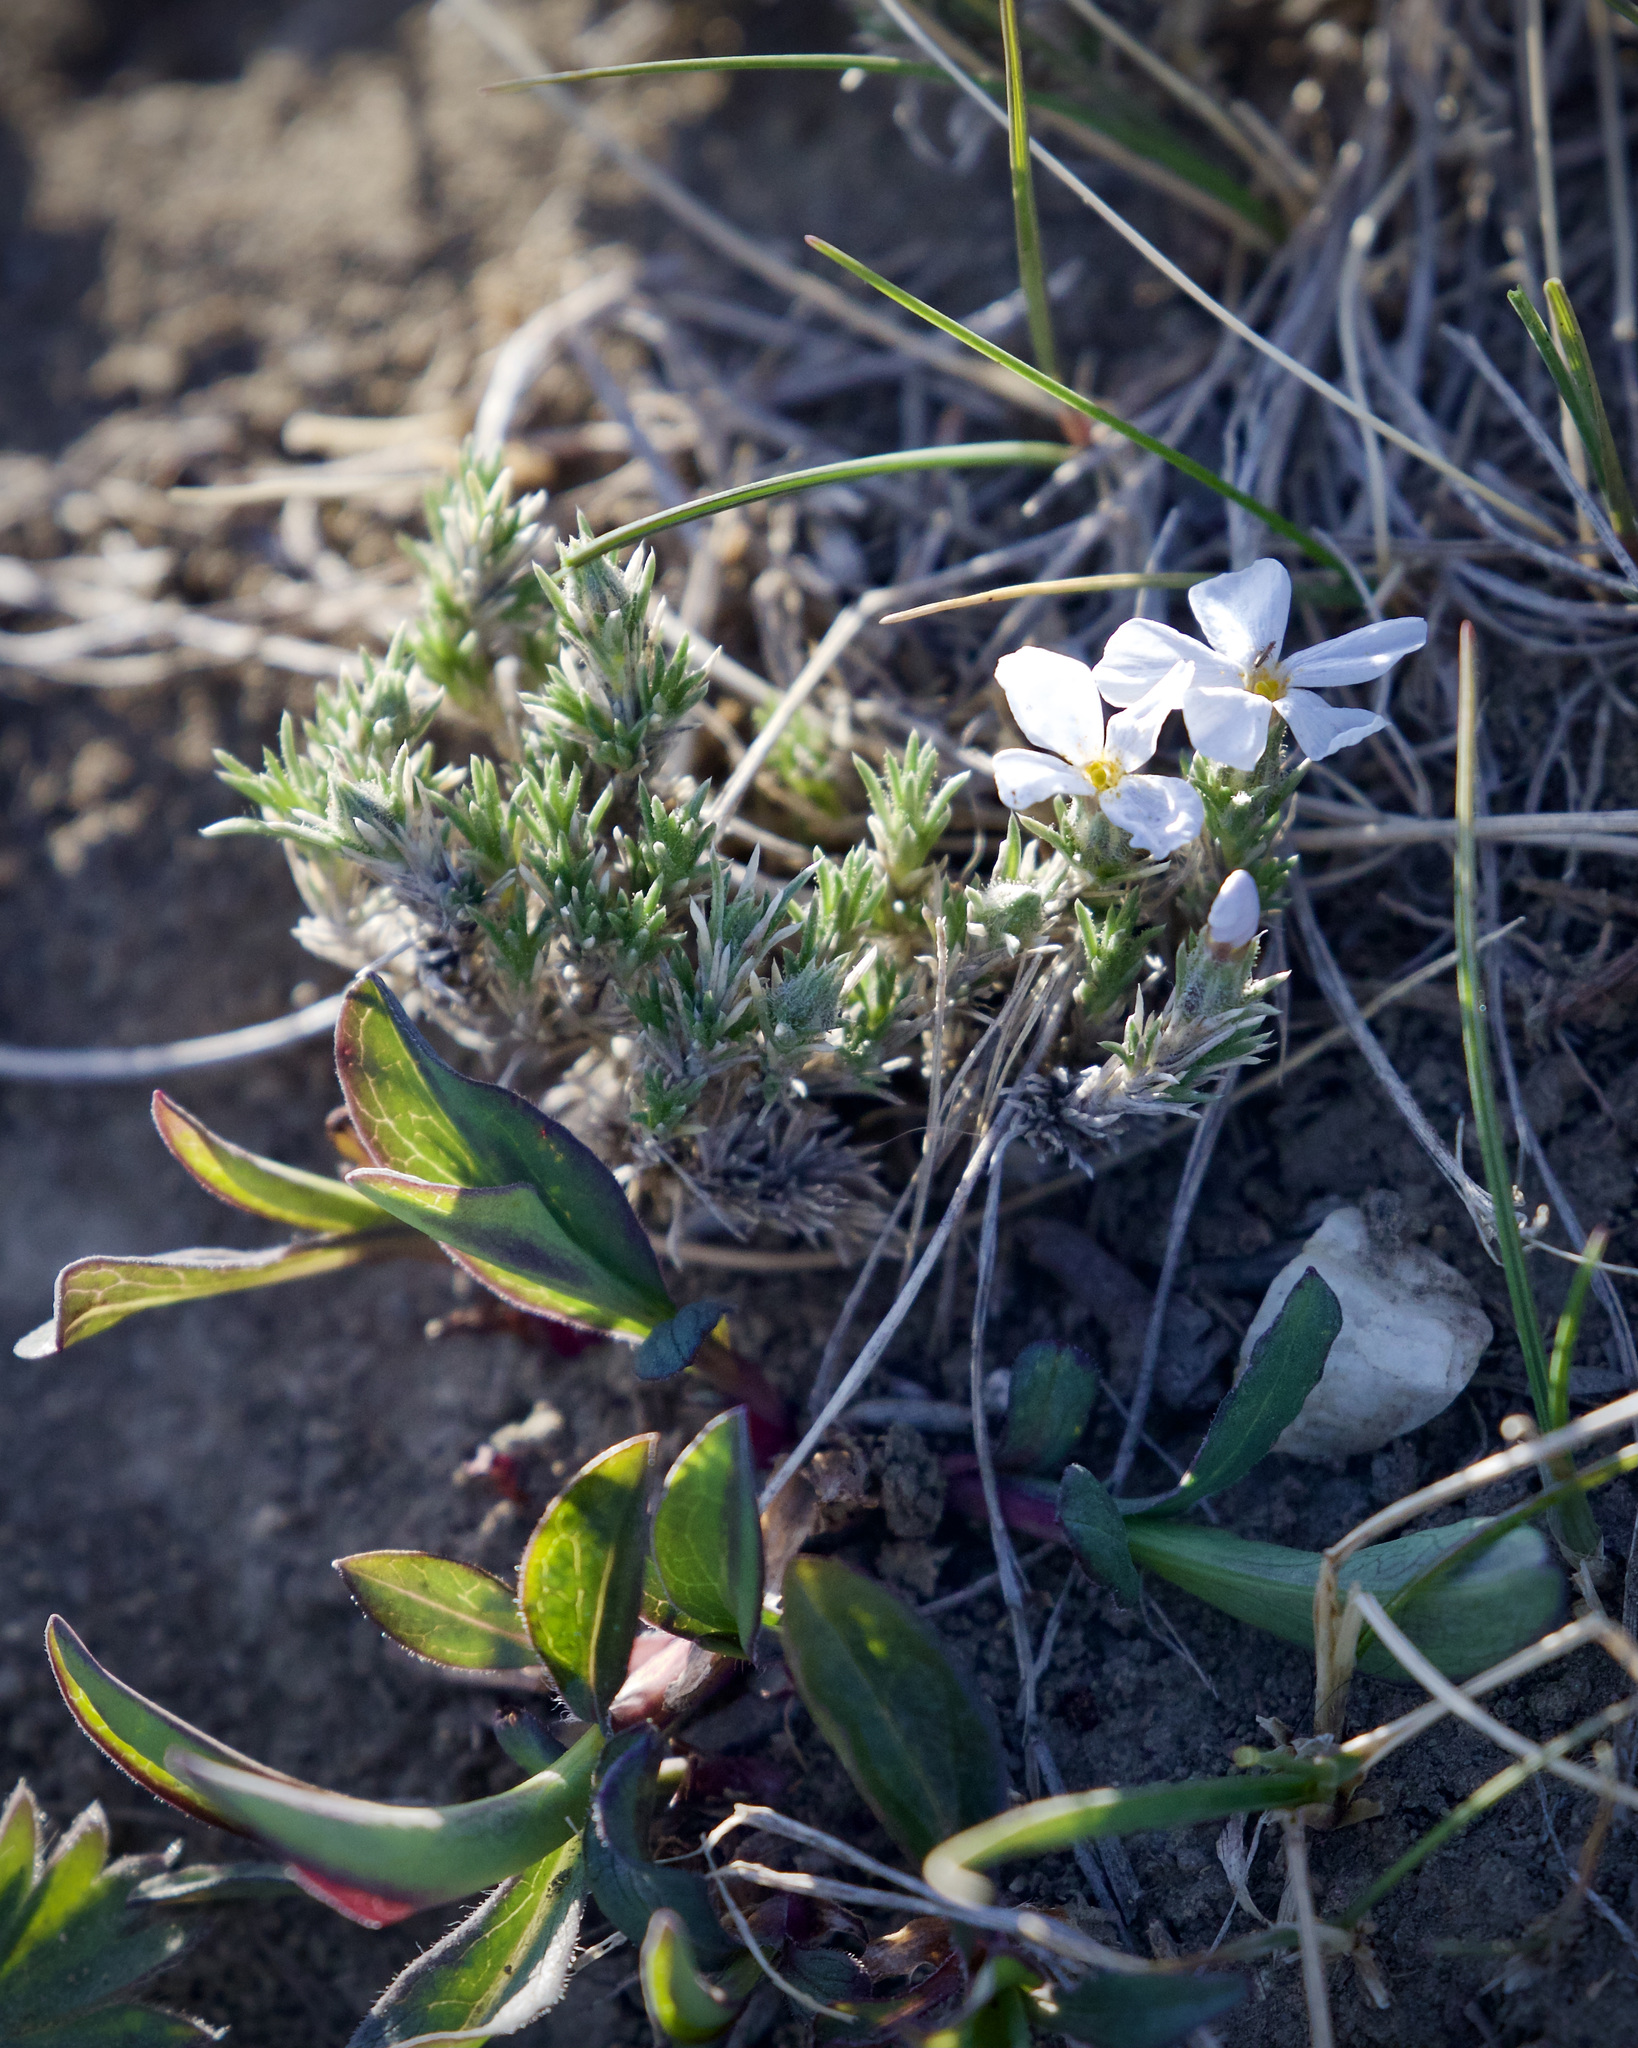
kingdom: Plantae
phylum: Tracheophyta
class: Magnoliopsida
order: Ericales
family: Polemoniaceae
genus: Phlox
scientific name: Phlox hoodii
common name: Moss phlox
